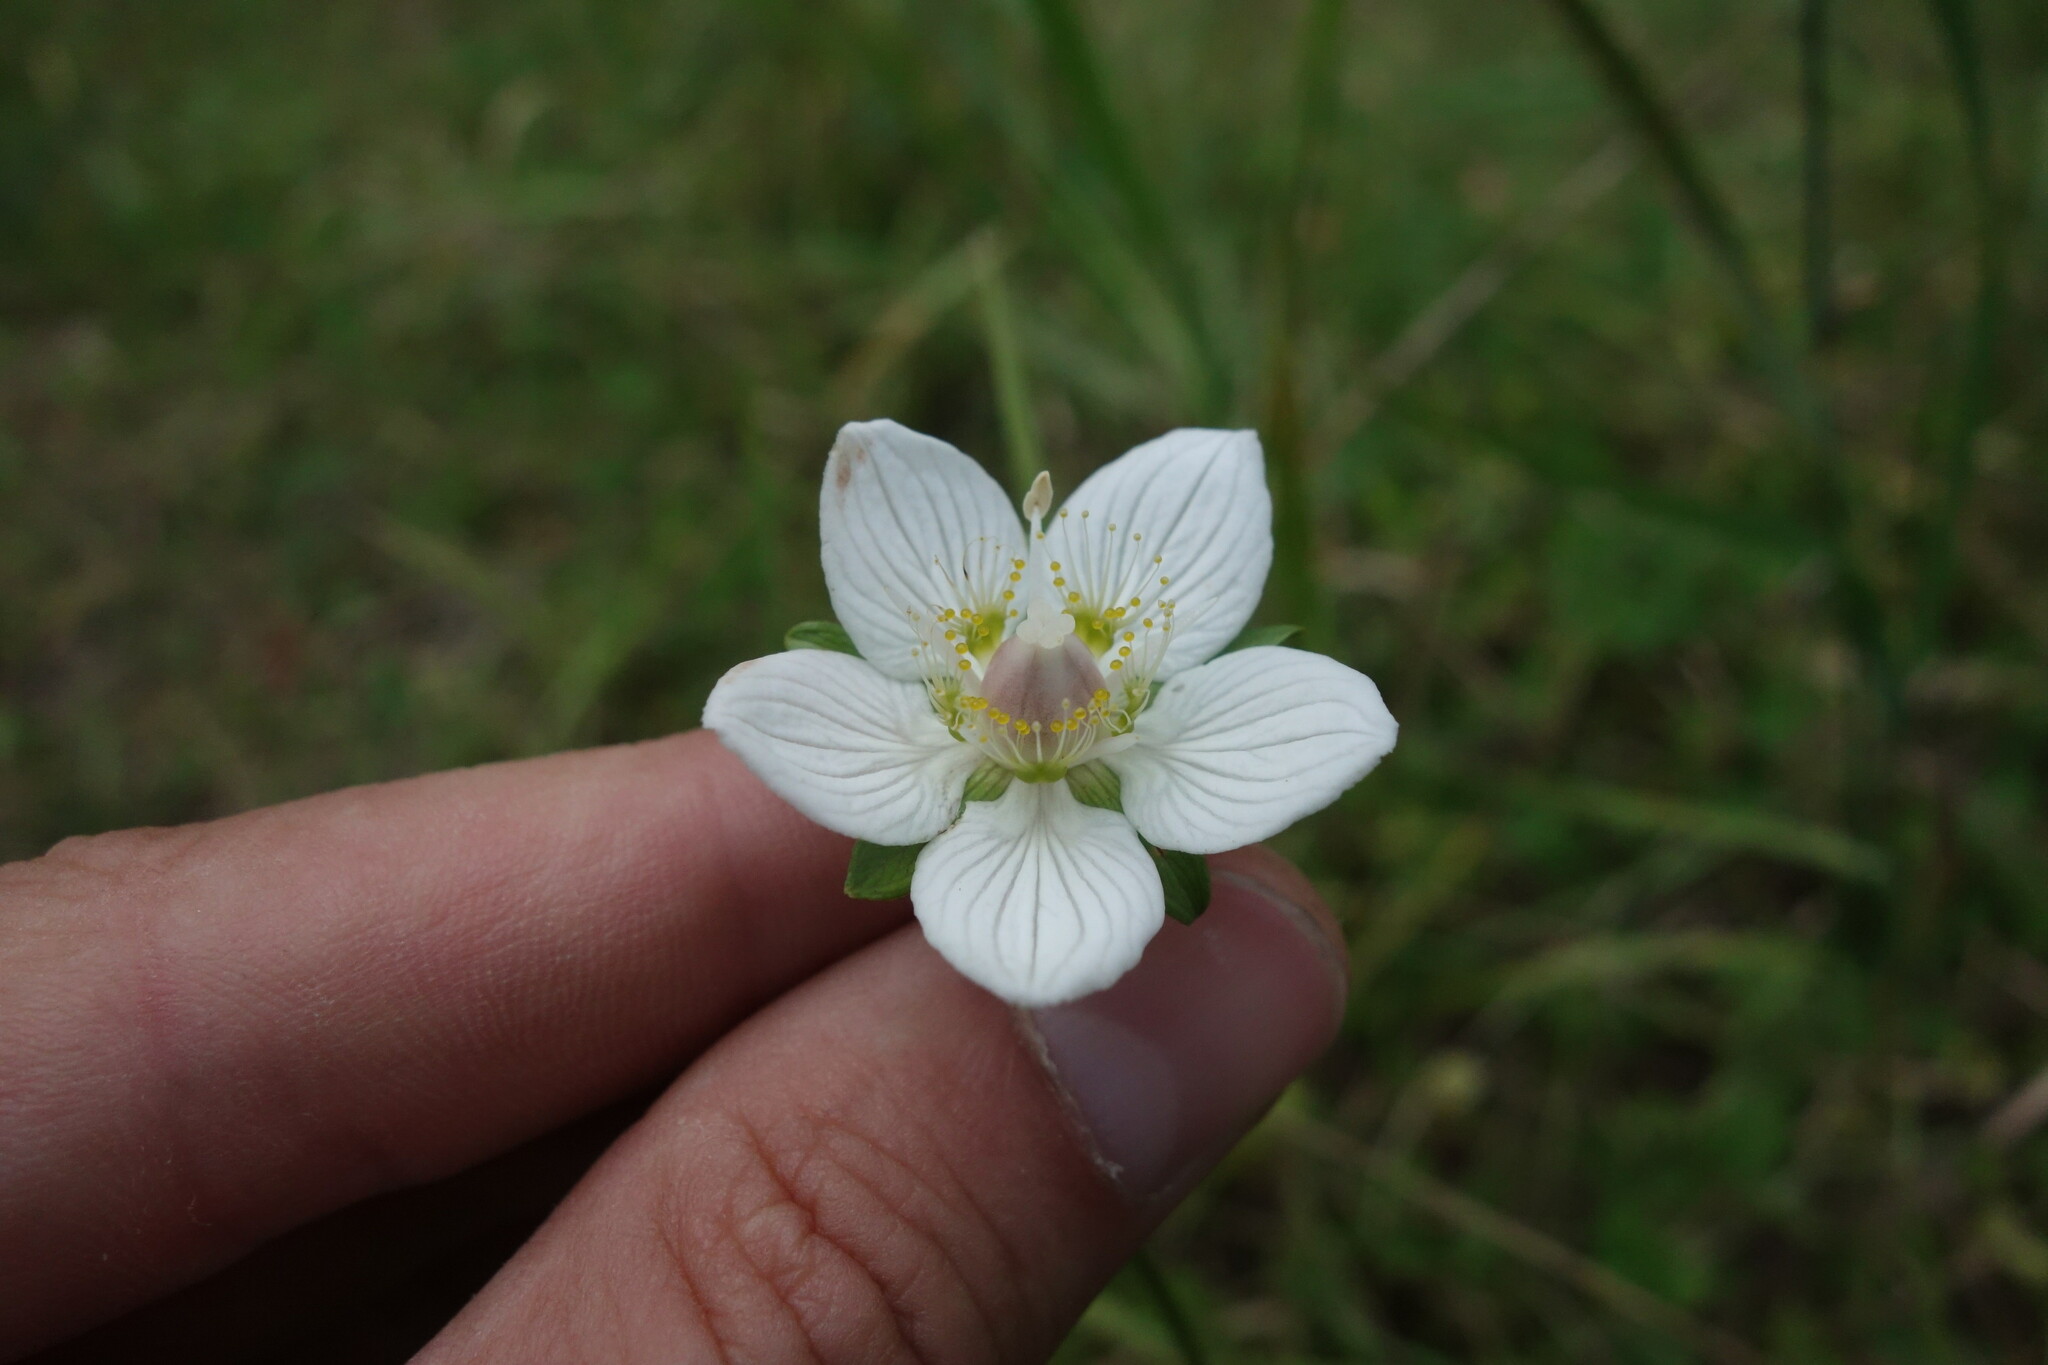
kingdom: Plantae
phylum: Tracheophyta
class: Magnoliopsida
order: Celastrales
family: Parnassiaceae
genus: Parnassia
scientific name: Parnassia palustris
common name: Grass-of-parnassus
